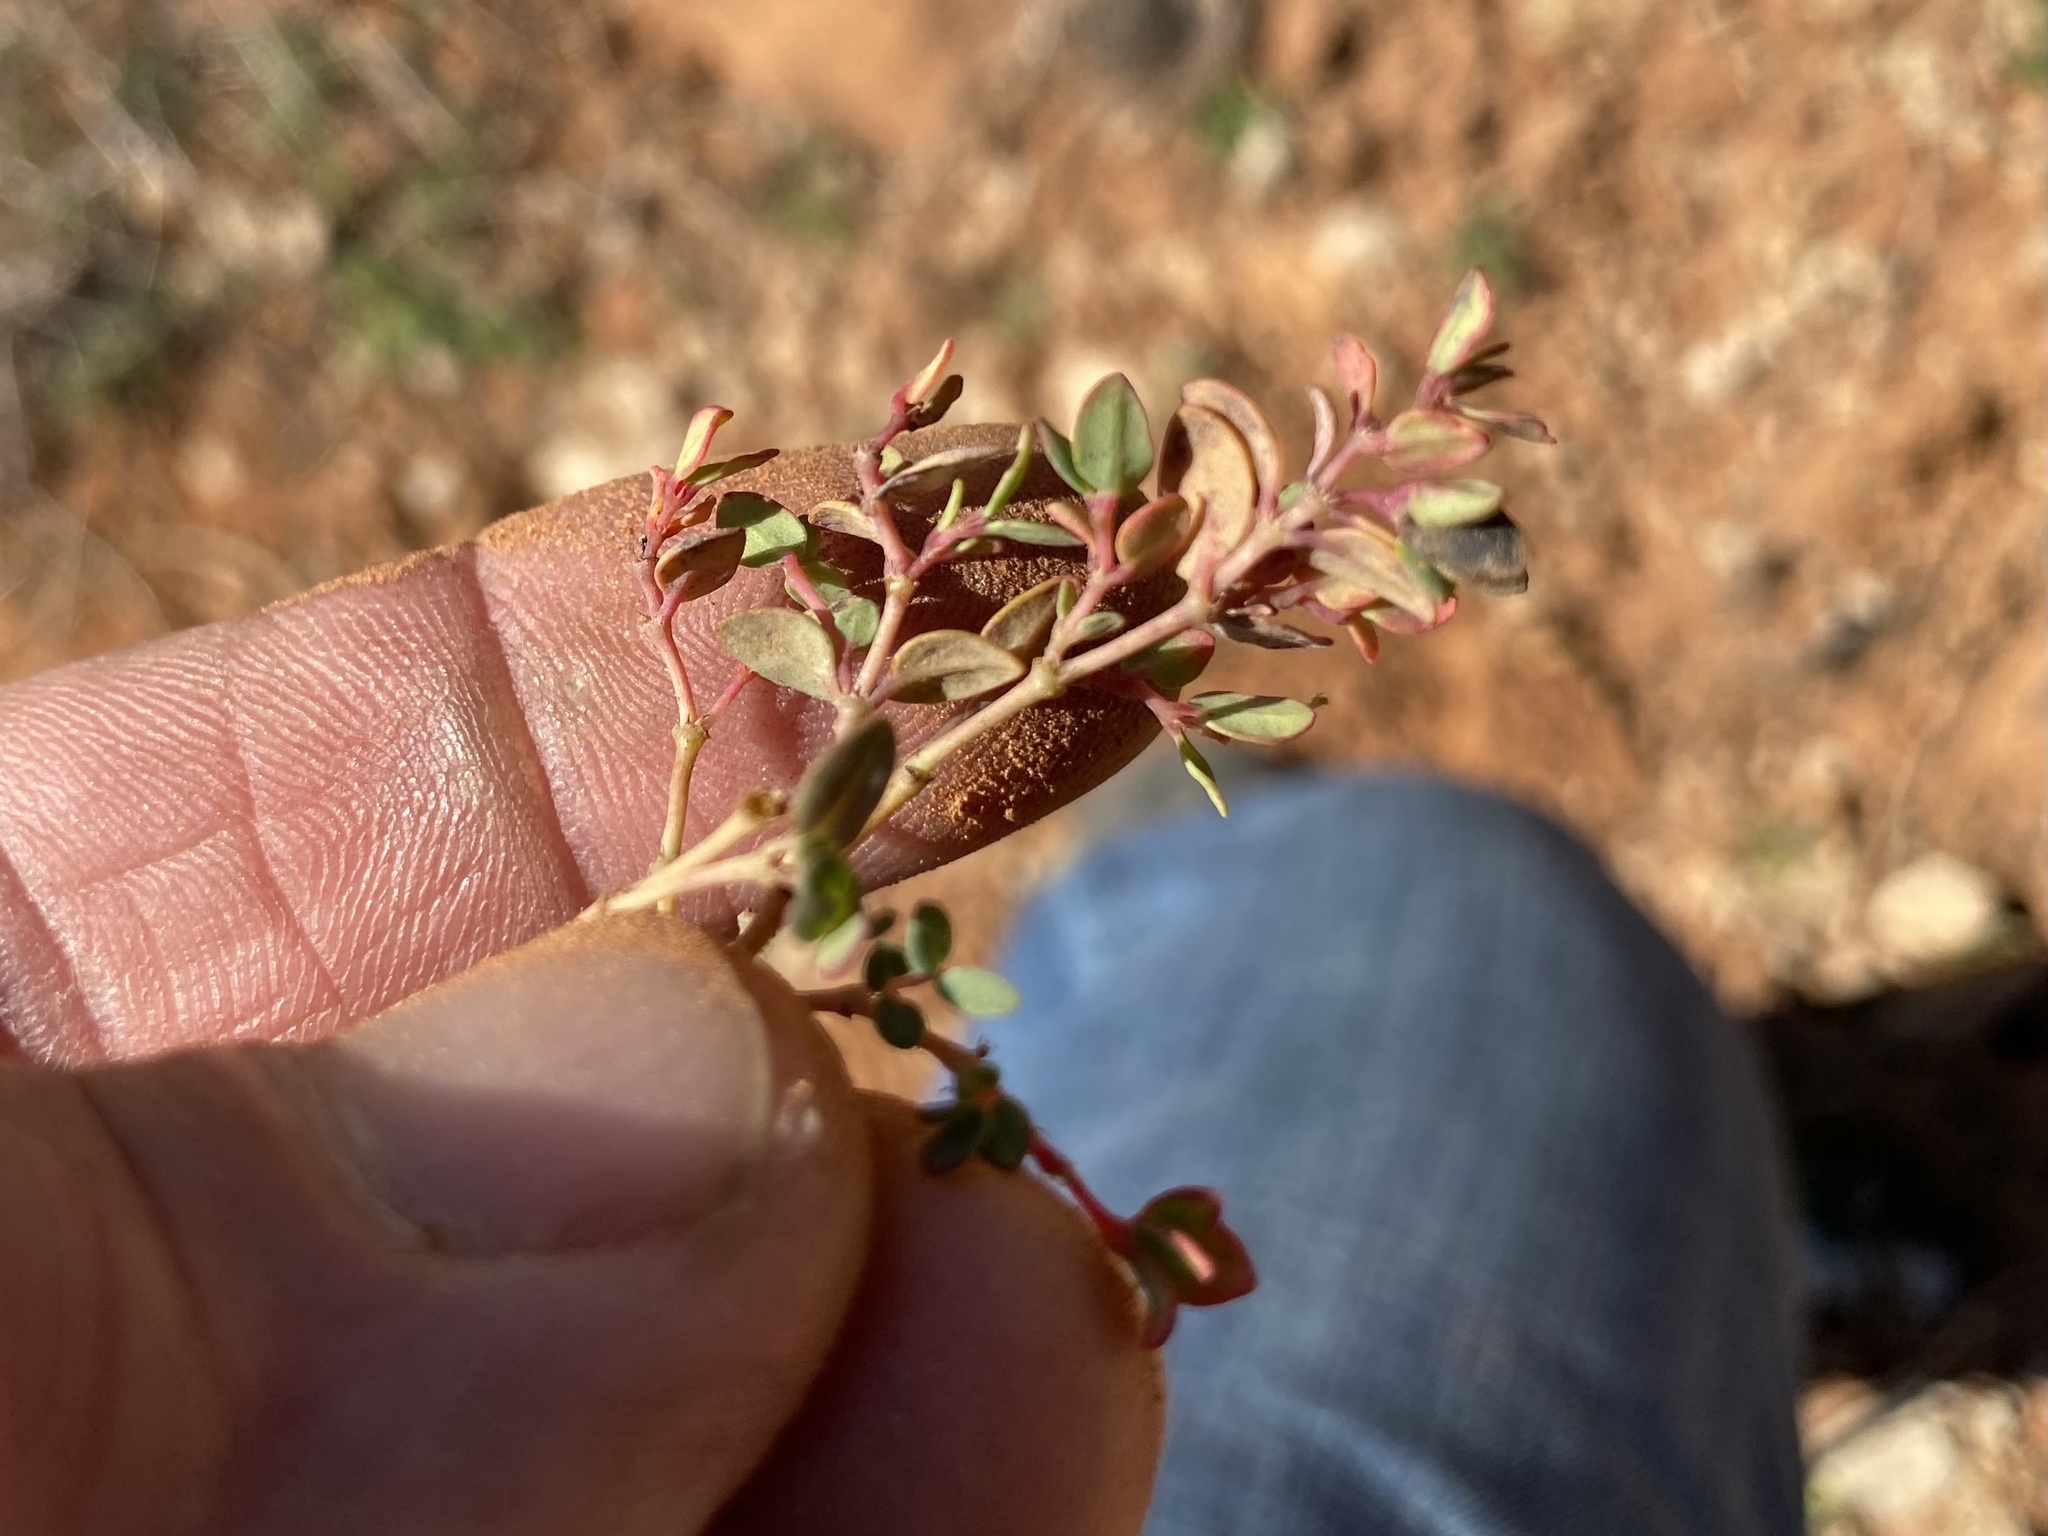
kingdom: Plantae
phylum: Tracheophyta
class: Magnoliopsida
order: Malpighiales
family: Euphorbiaceae
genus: Euphorbia
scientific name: Euphorbia fendleri
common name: Fendler's euphorbia
